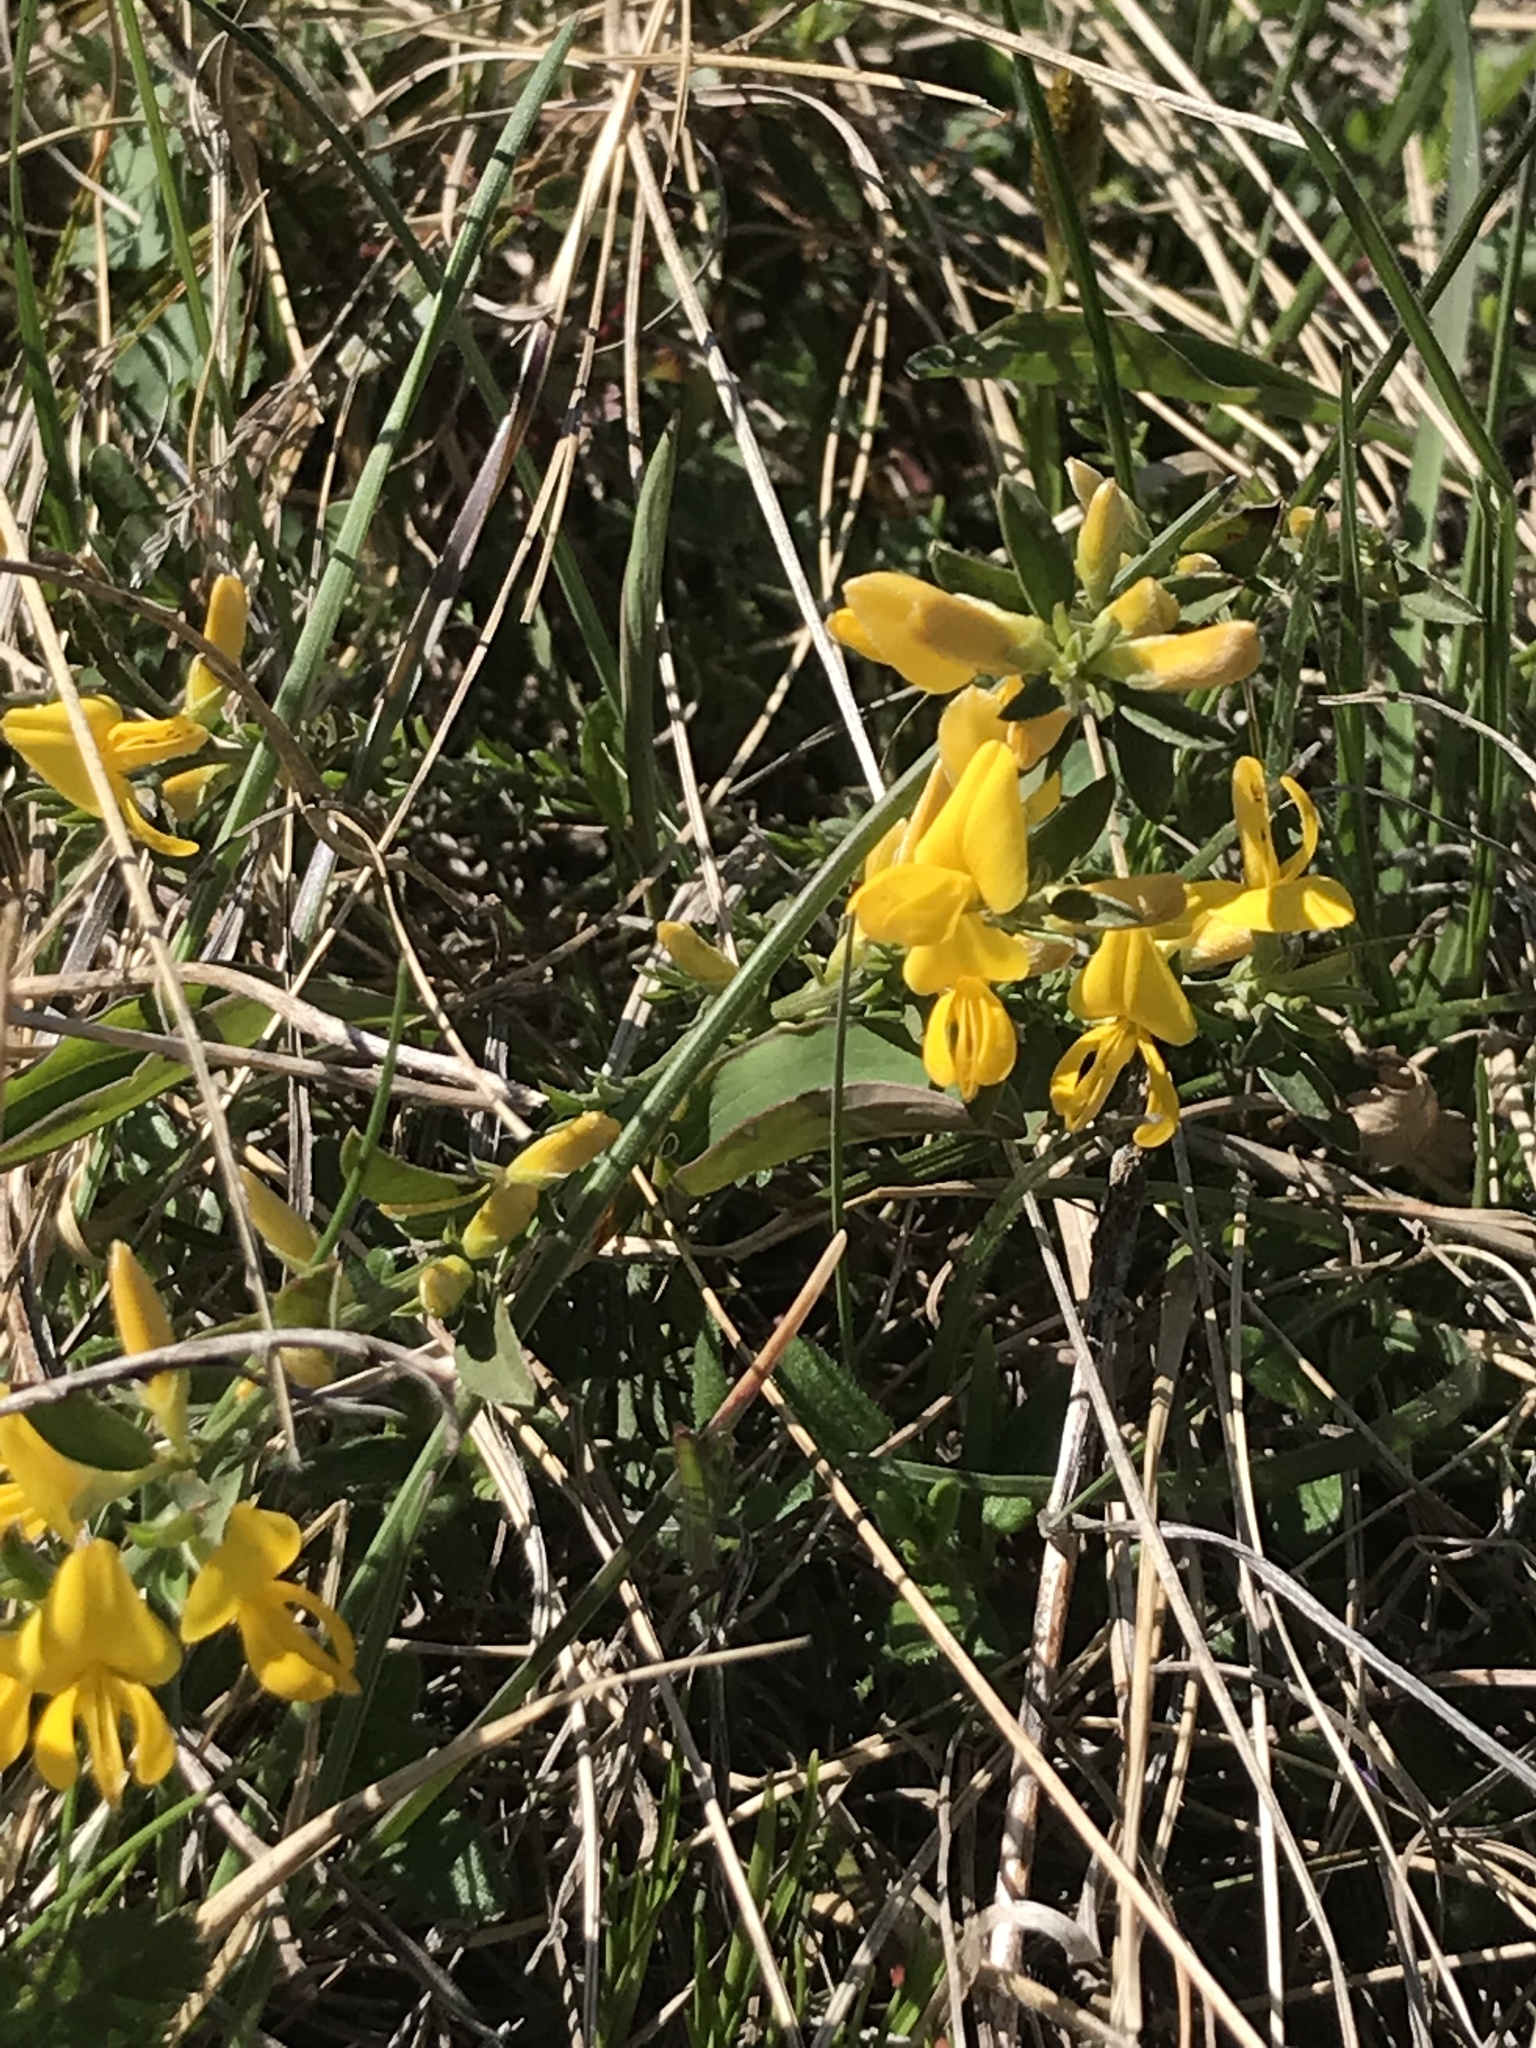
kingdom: Plantae
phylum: Tracheophyta
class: Magnoliopsida
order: Fabales
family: Fabaceae
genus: Genista
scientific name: Genista pilosa
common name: Hairy greenweed
